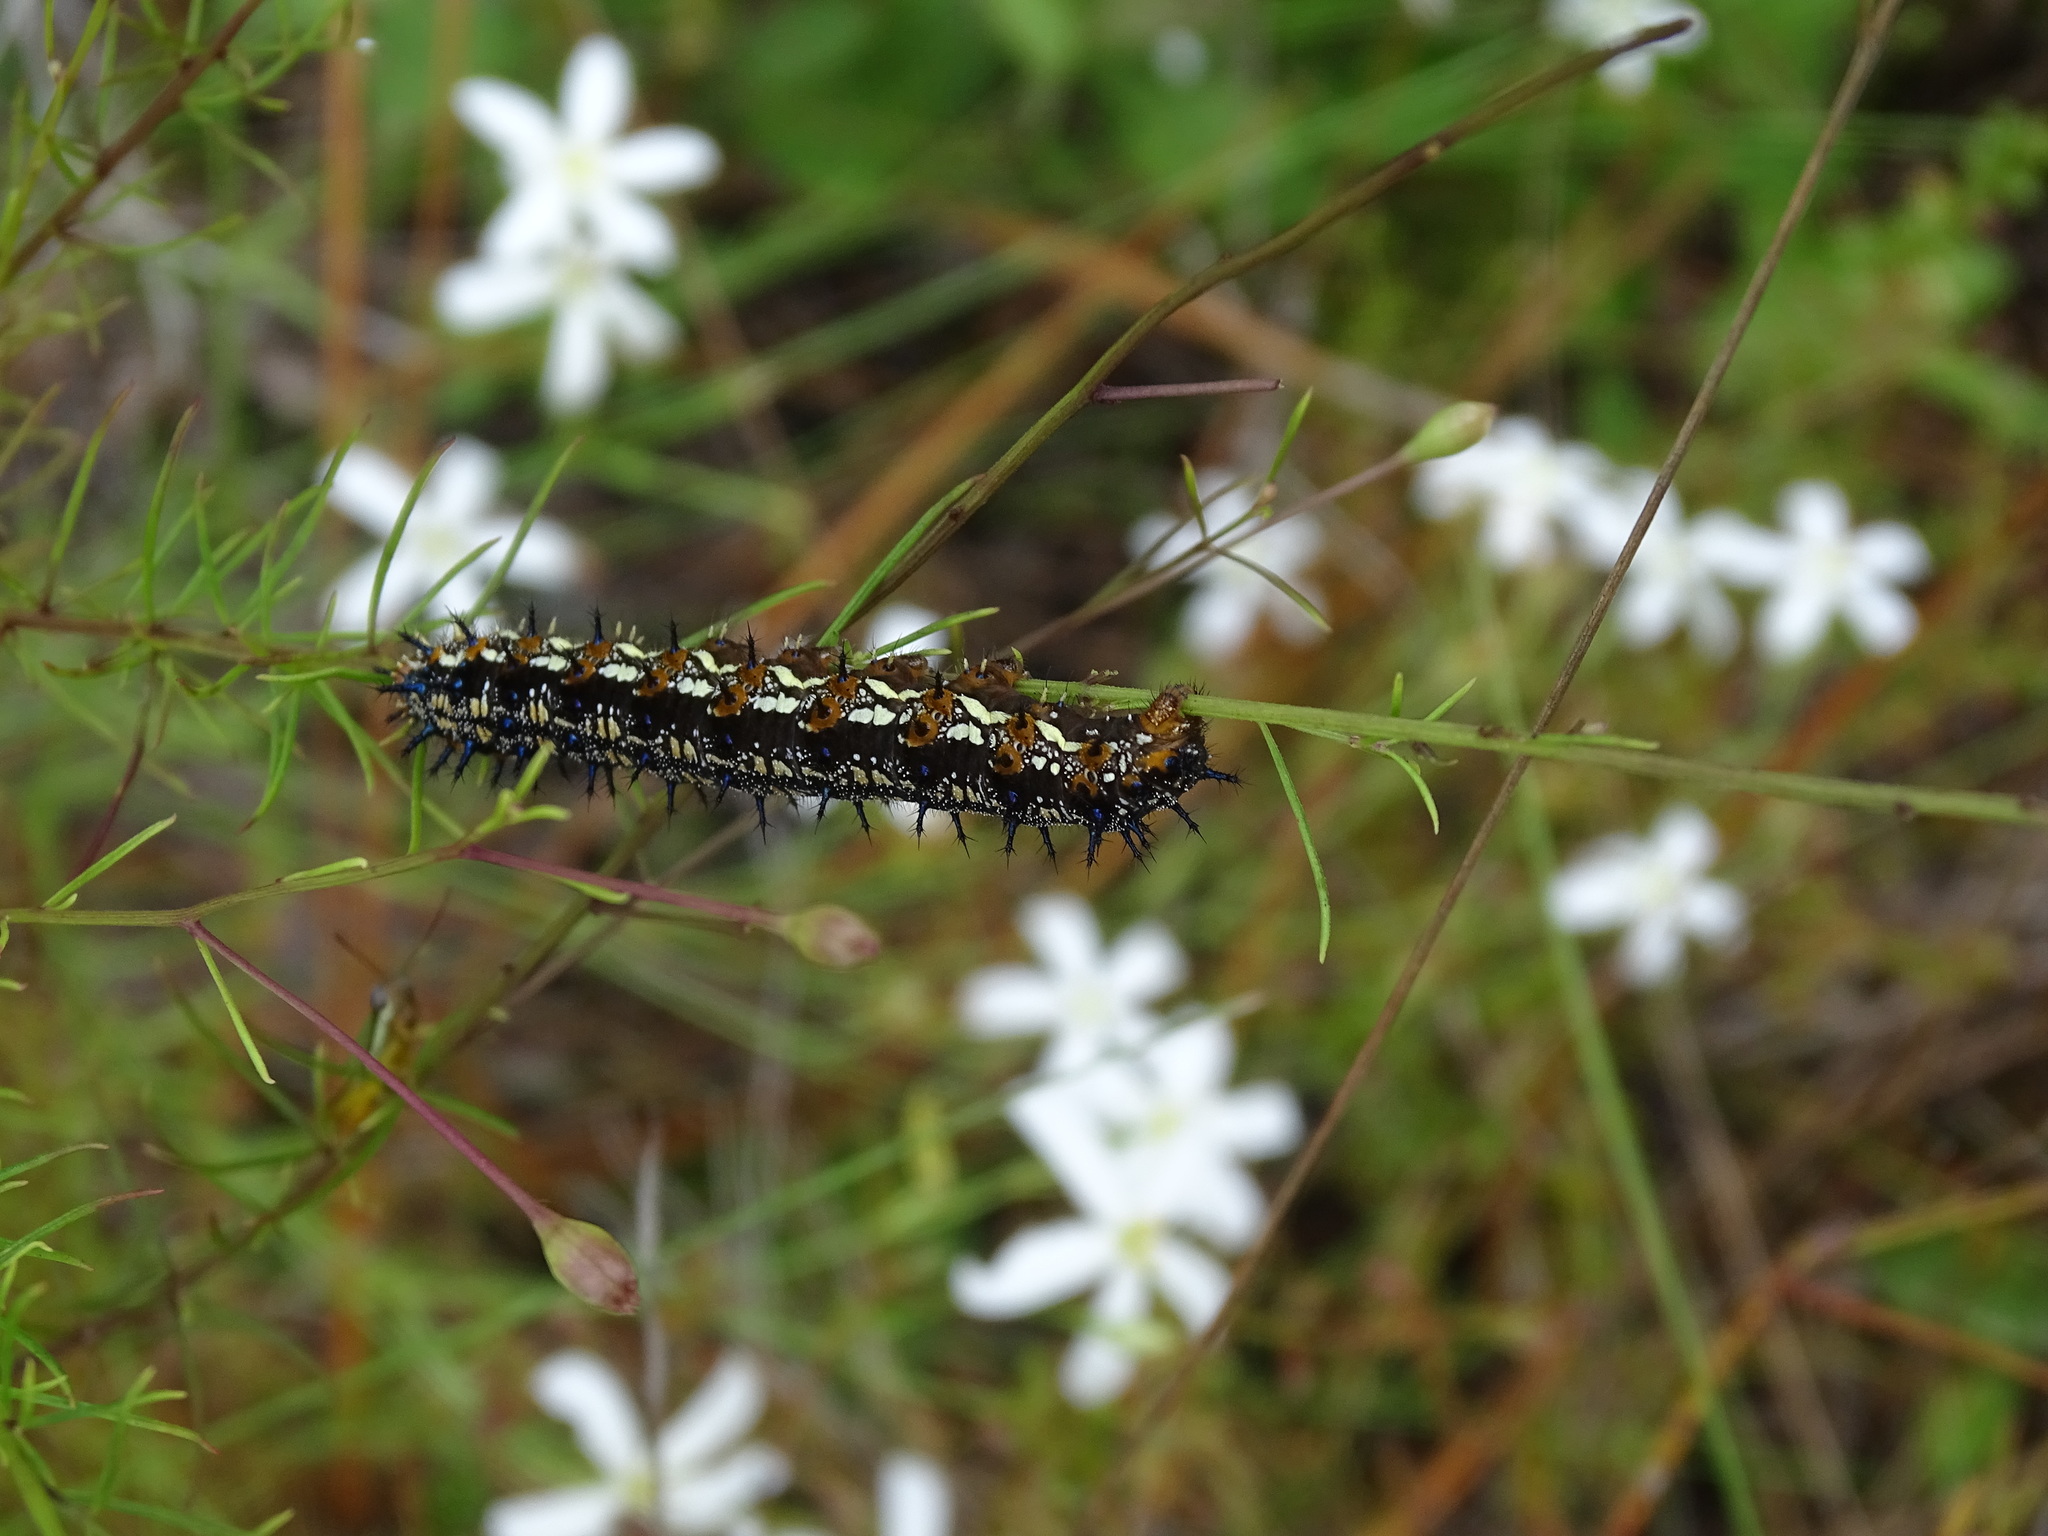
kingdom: Animalia
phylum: Arthropoda
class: Insecta
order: Lepidoptera
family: Nymphalidae
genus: Junonia
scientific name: Junonia coenia
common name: Common buckeye
